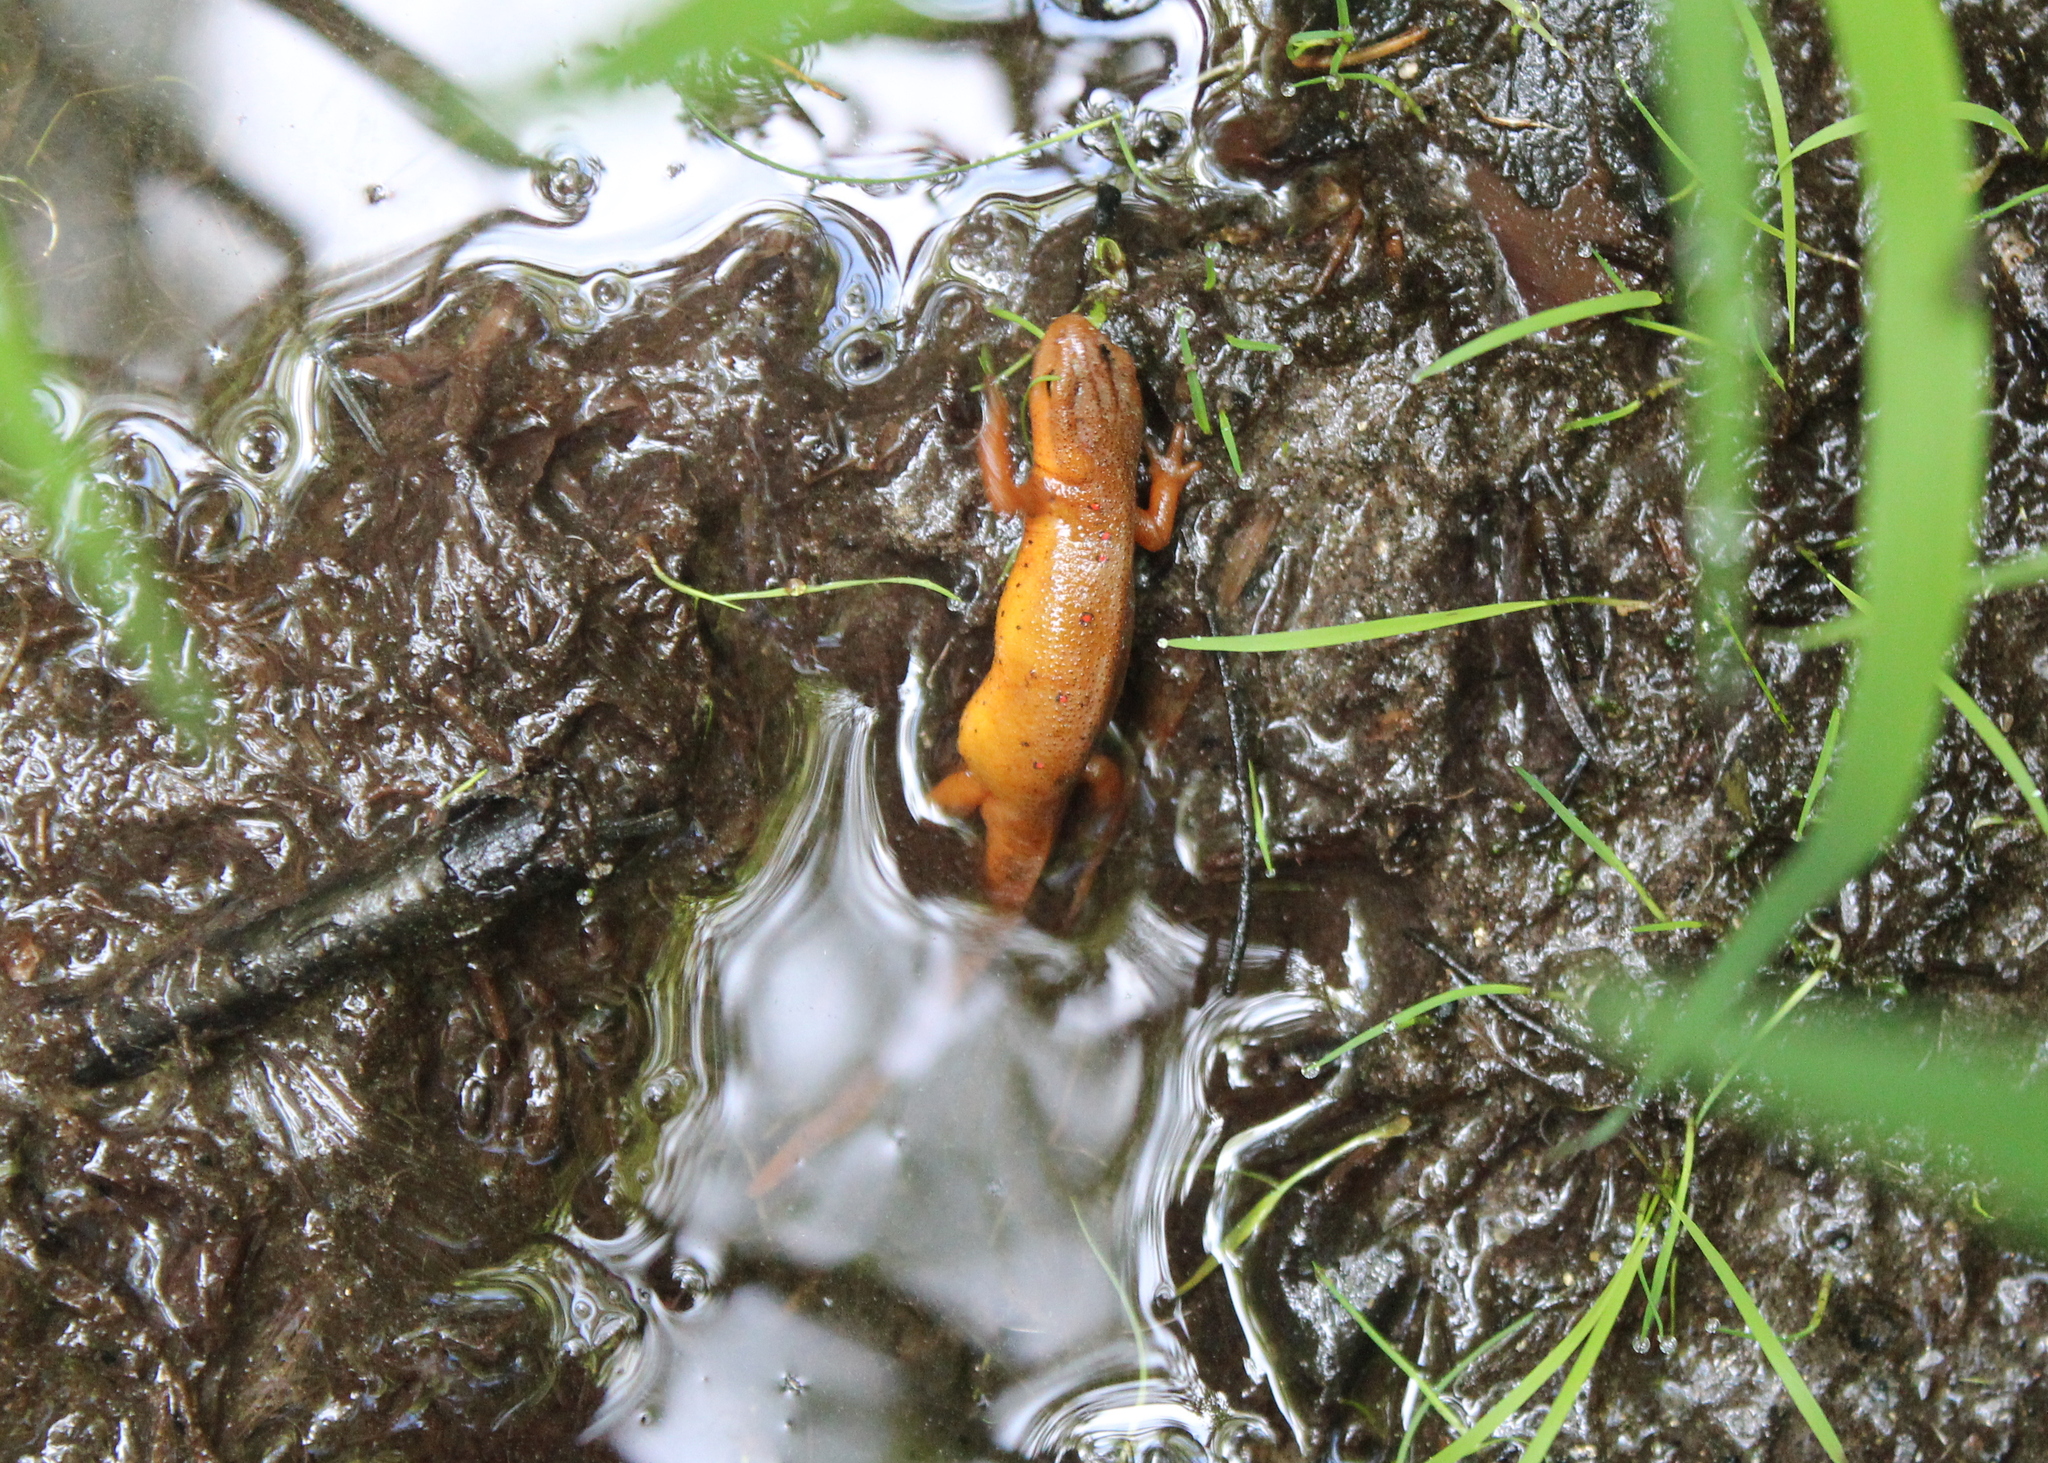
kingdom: Animalia
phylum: Chordata
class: Amphibia
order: Caudata
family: Salamandridae
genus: Notophthalmus
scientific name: Notophthalmus viridescens
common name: Eastern newt
